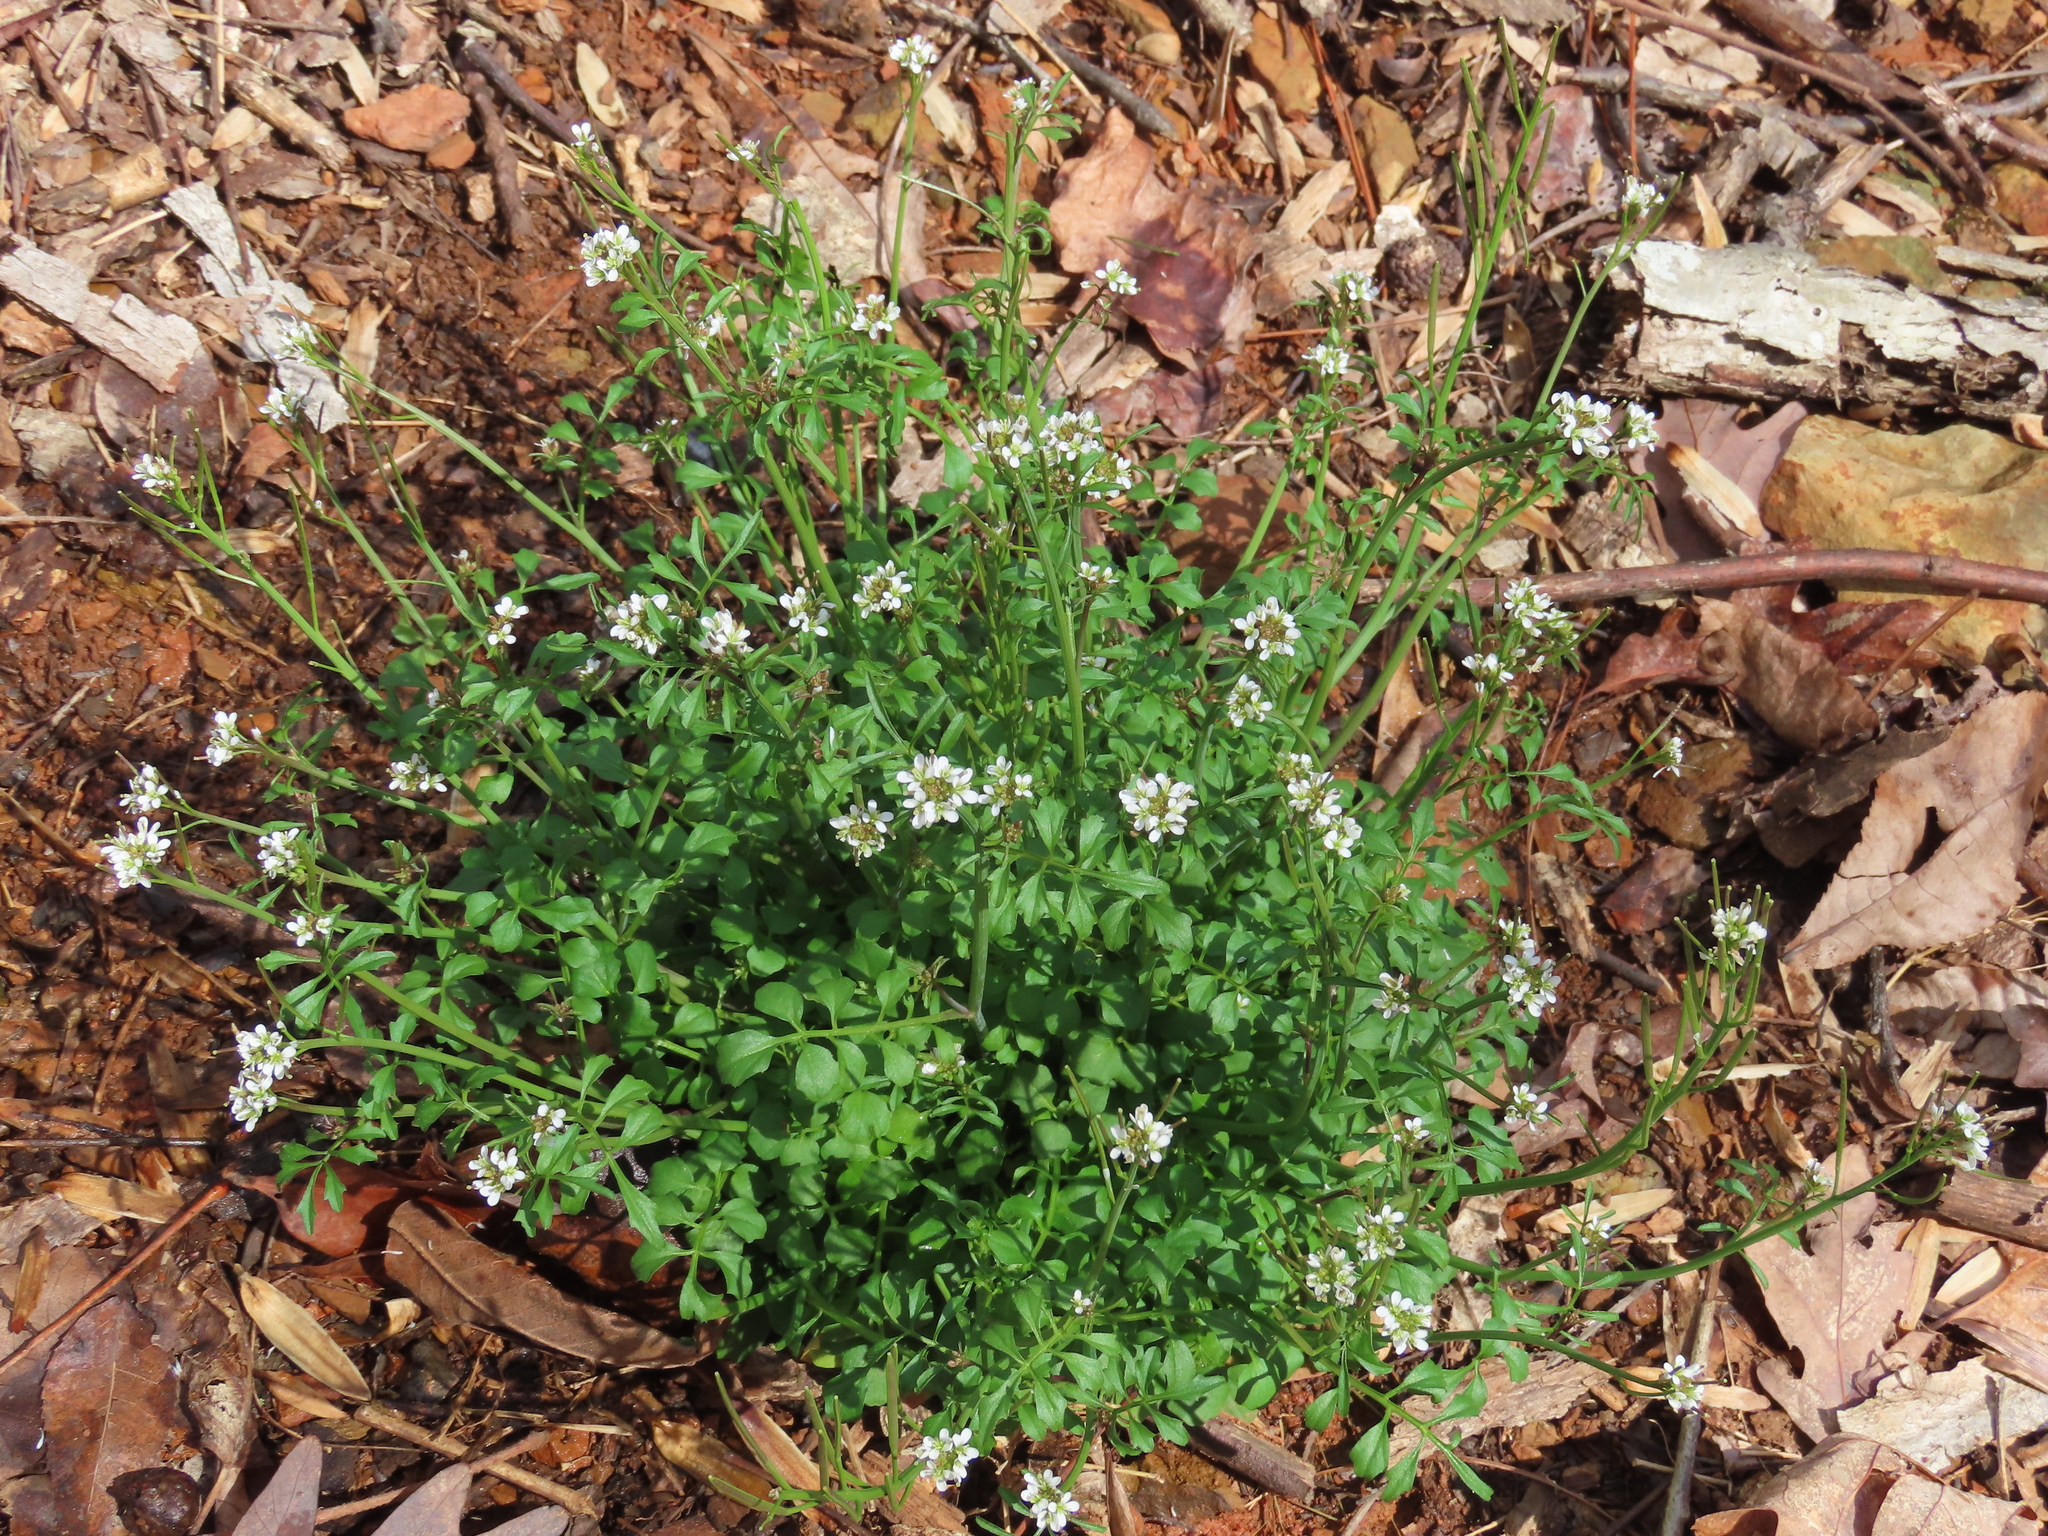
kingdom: Plantae
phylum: Tracheophyta
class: Magnoliopsida
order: Brassicales
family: Brassicaceae
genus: Cardamine
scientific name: Cardamine hirsuta
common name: Hairy bittercress
